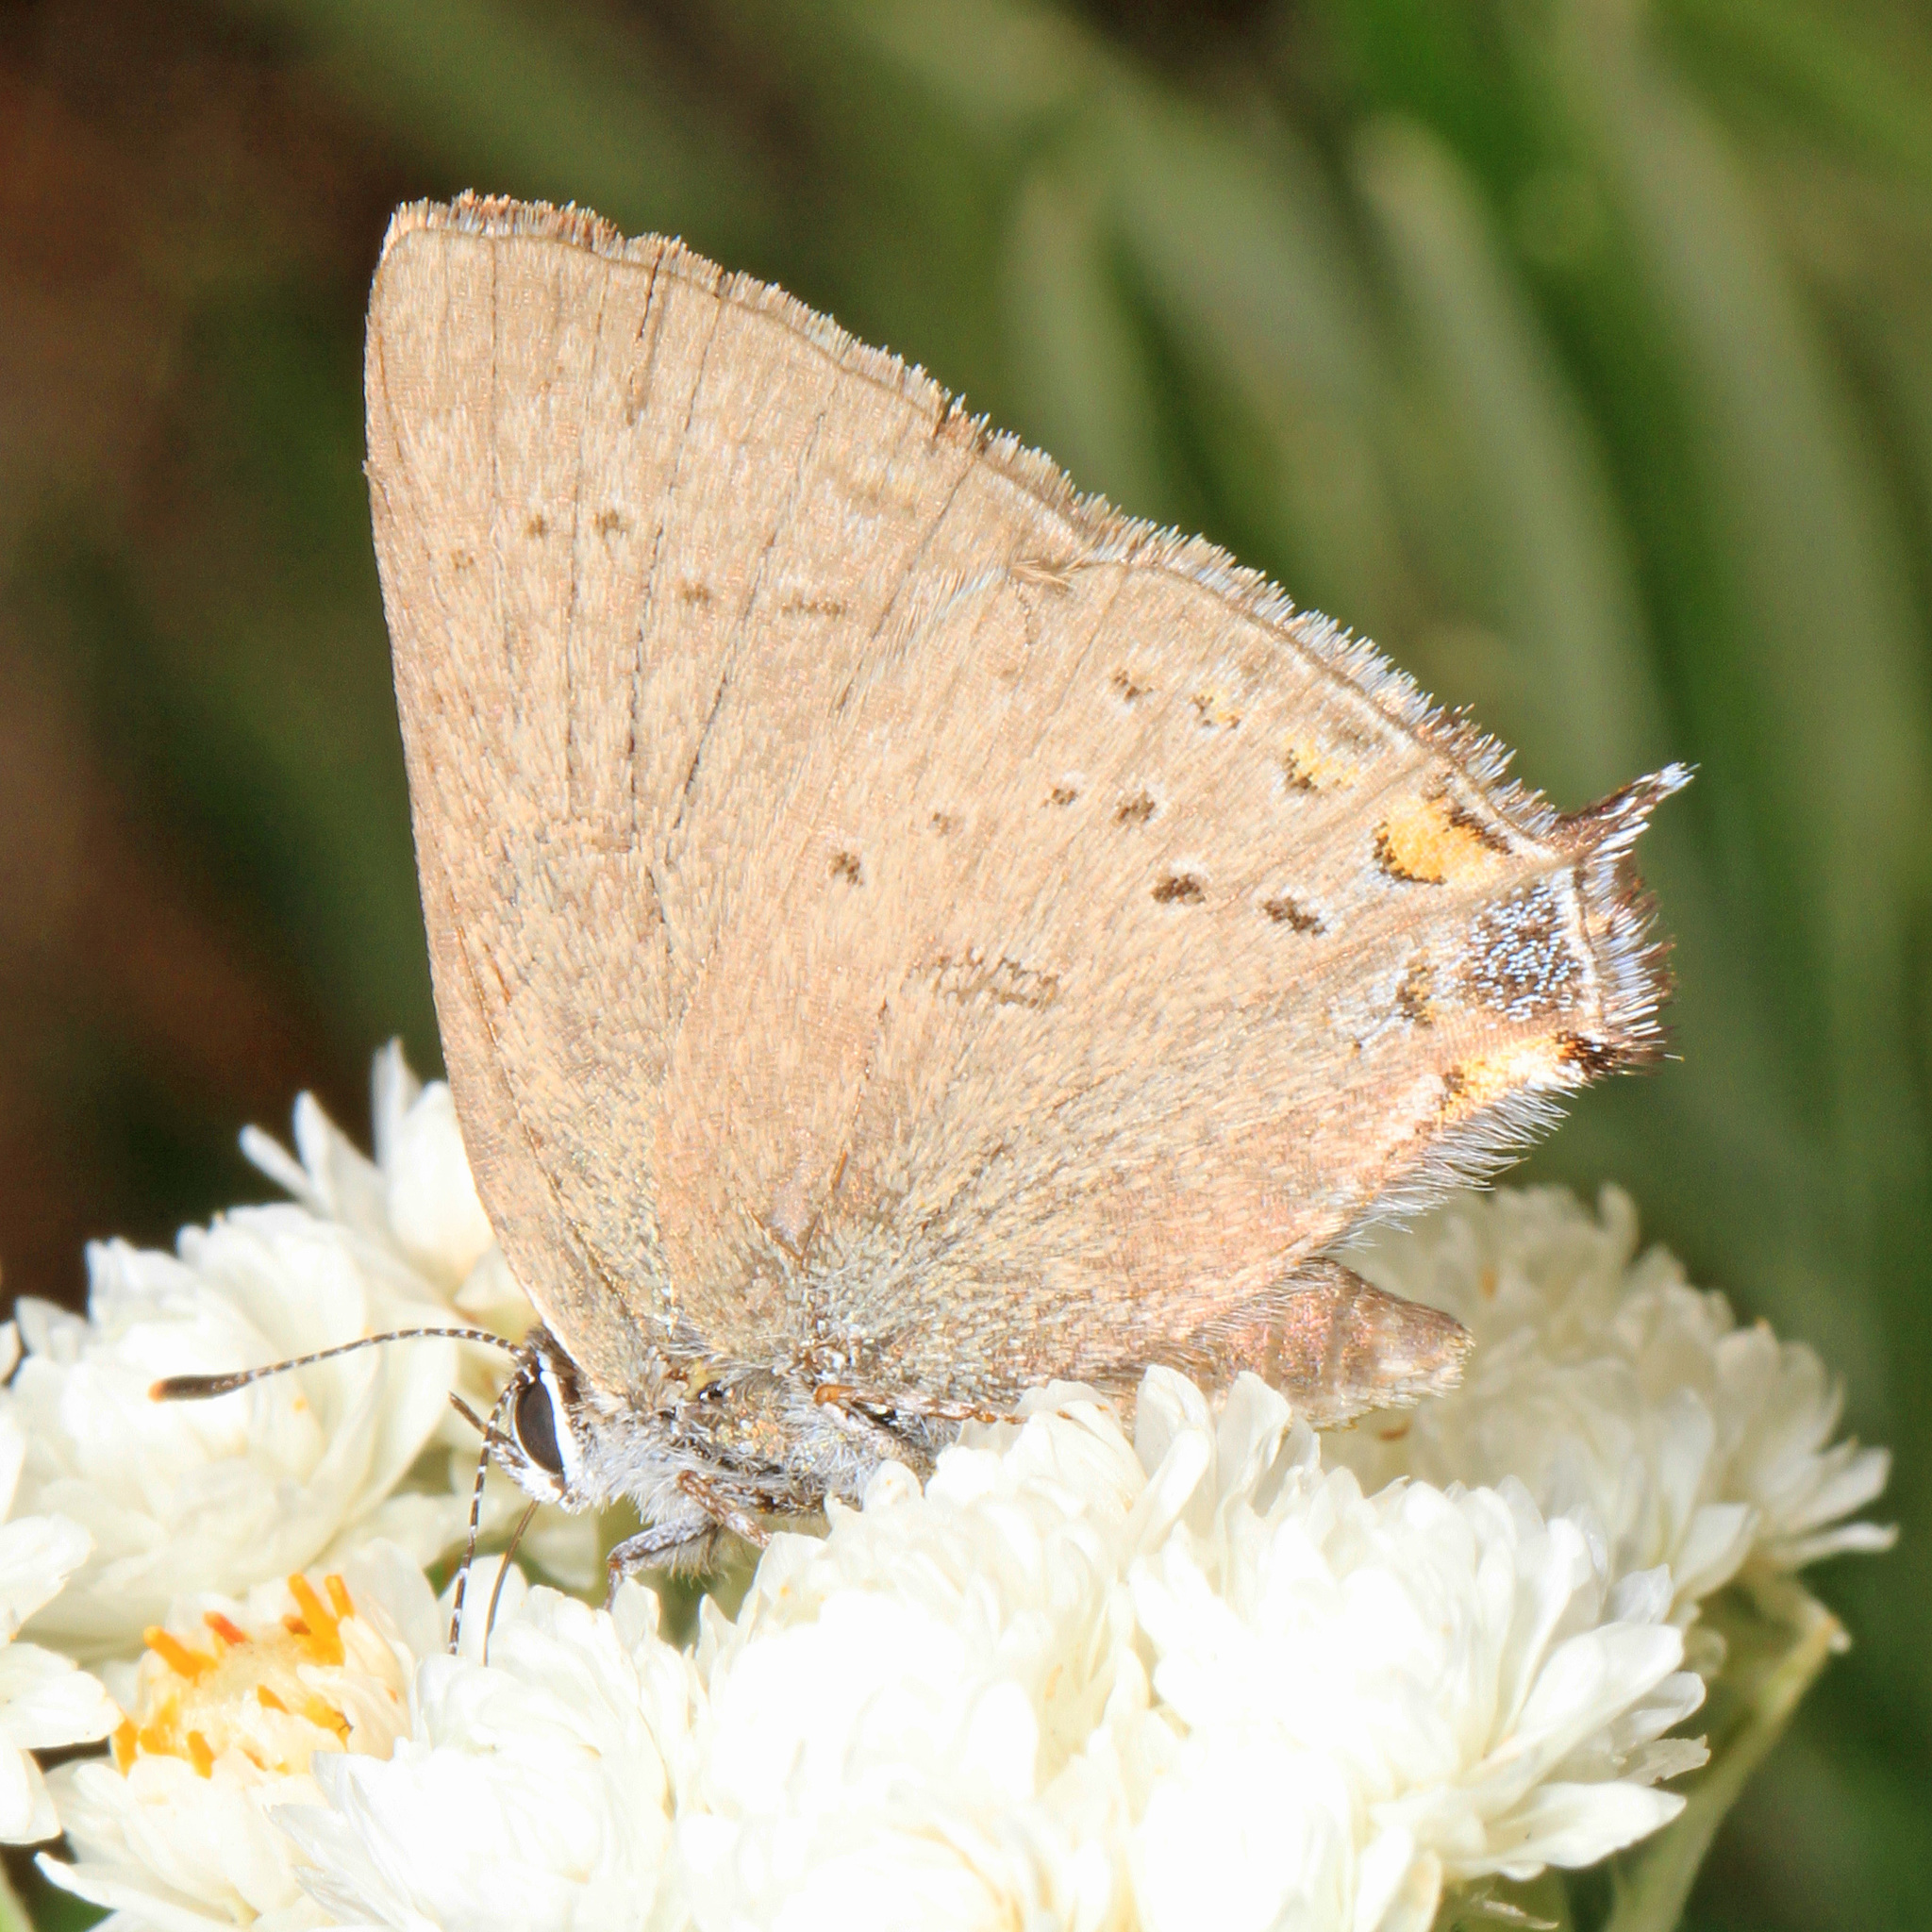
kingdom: Animalia
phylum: Arthropoda
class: Insecta
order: Lepidoptera
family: Lycaenidae
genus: Strymon
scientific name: Strymon sylvinus
